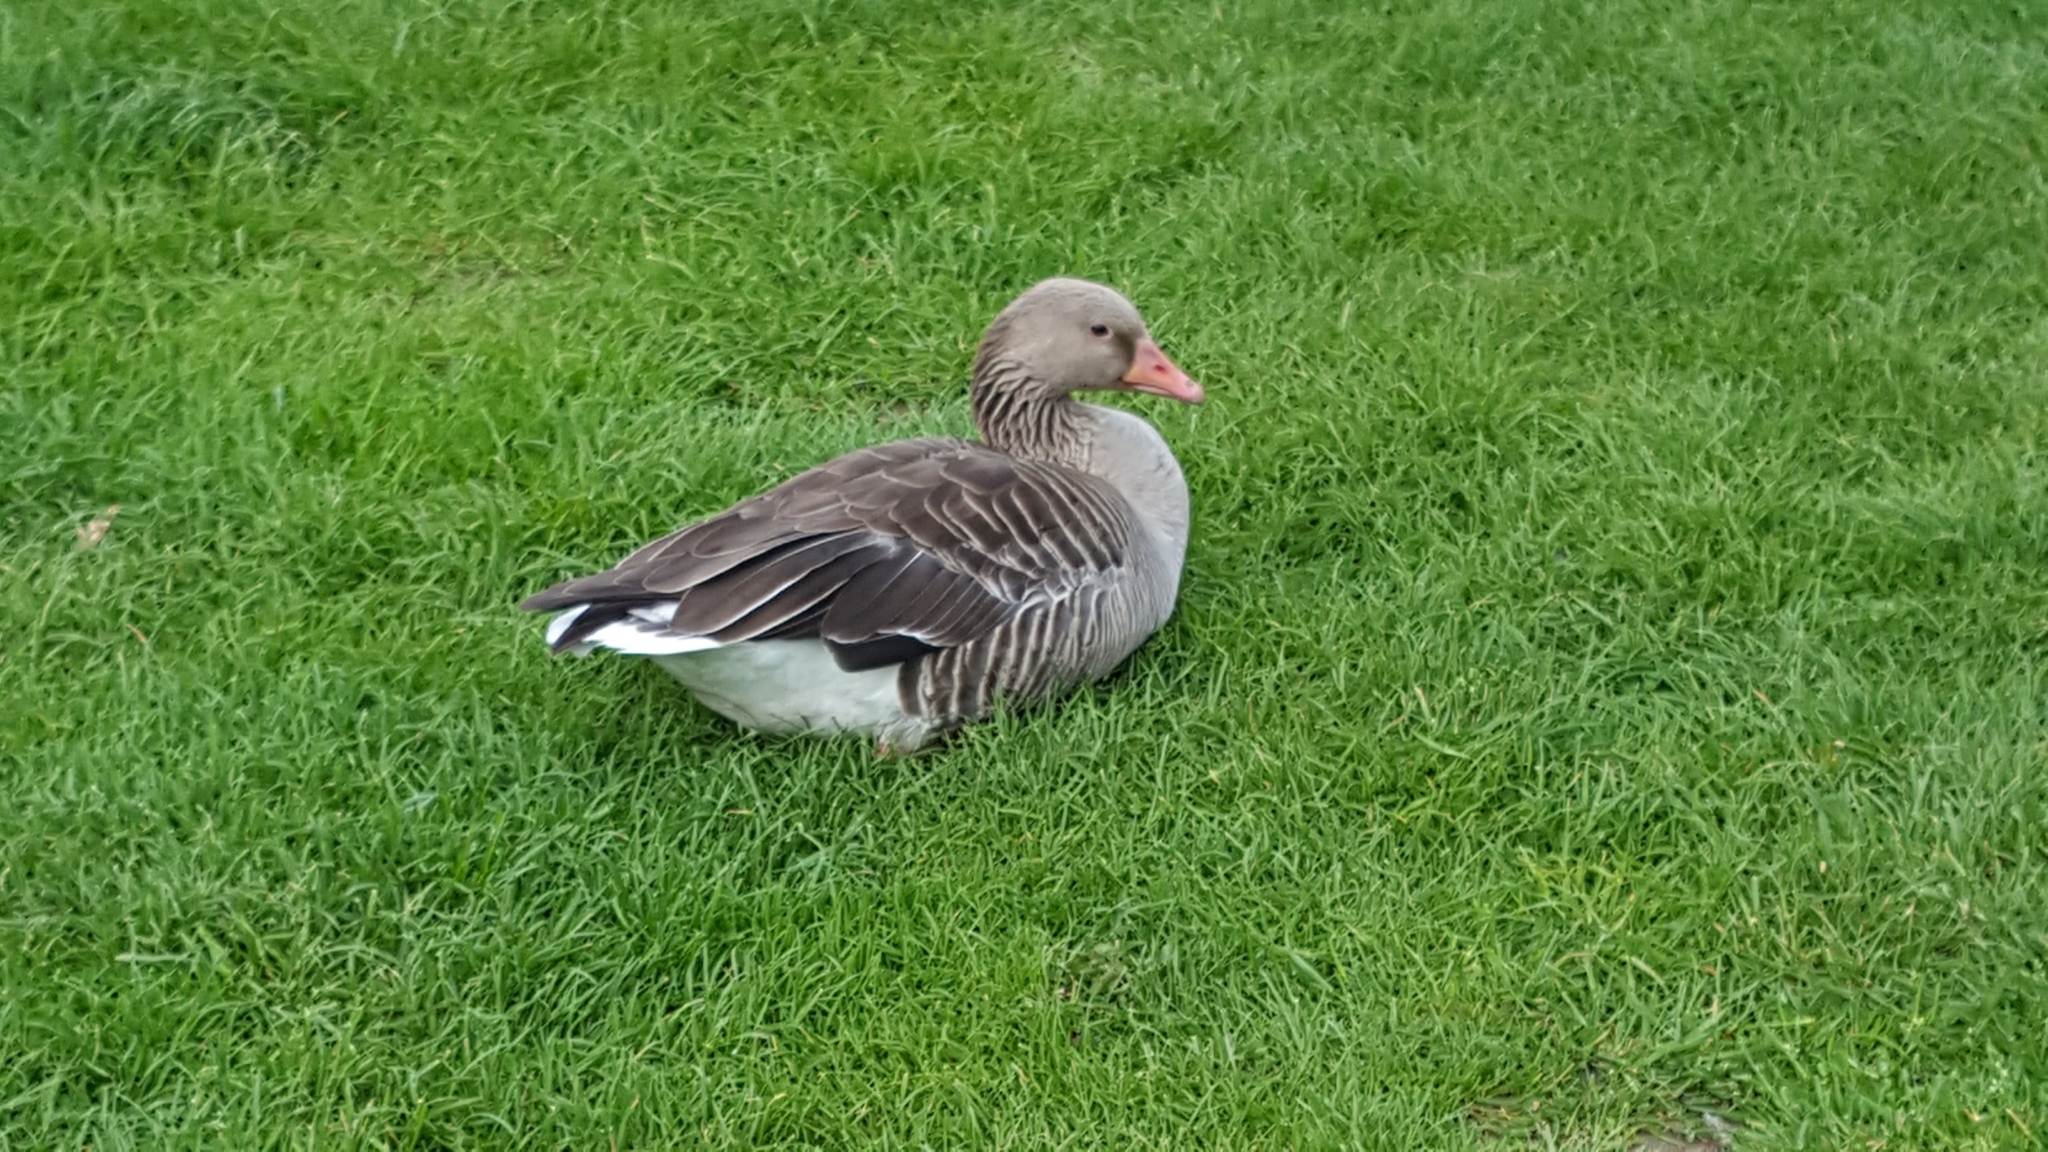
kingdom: Animalia
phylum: Chordata
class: Aves
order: Anseriformes
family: Anatidae
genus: Anser
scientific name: Anser anser
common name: Greylag goose
